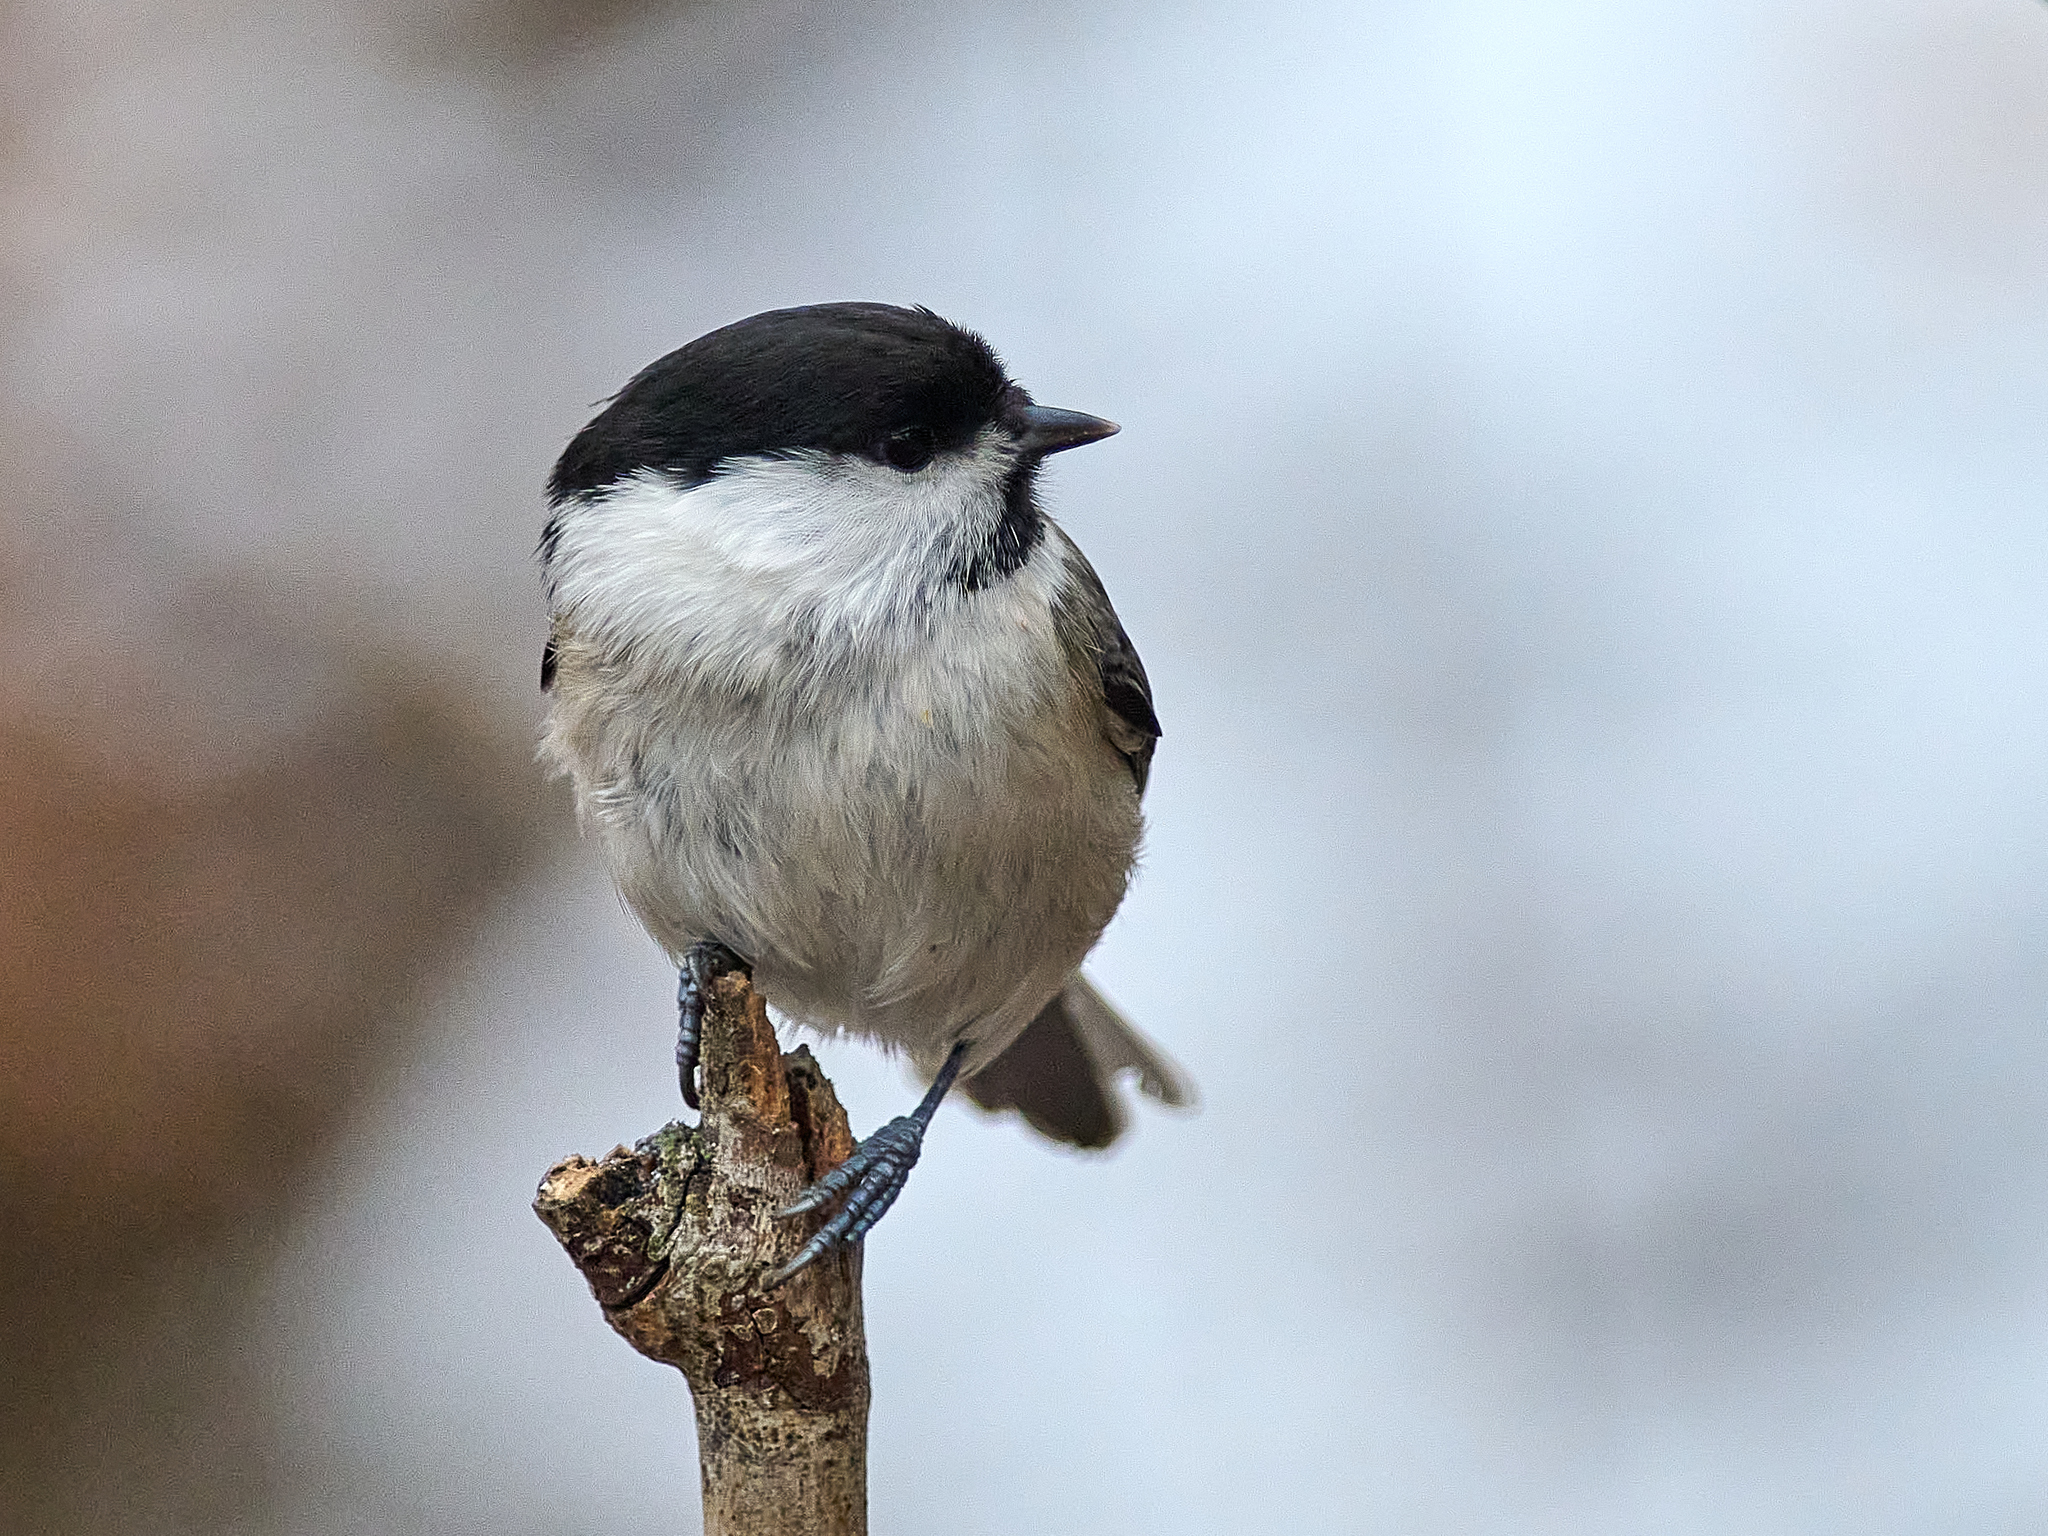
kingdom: Animalia
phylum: Chordata
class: Aves
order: Passeriformes
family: Paridae
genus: Poecile
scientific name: Poecile montanus
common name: Willow tit
